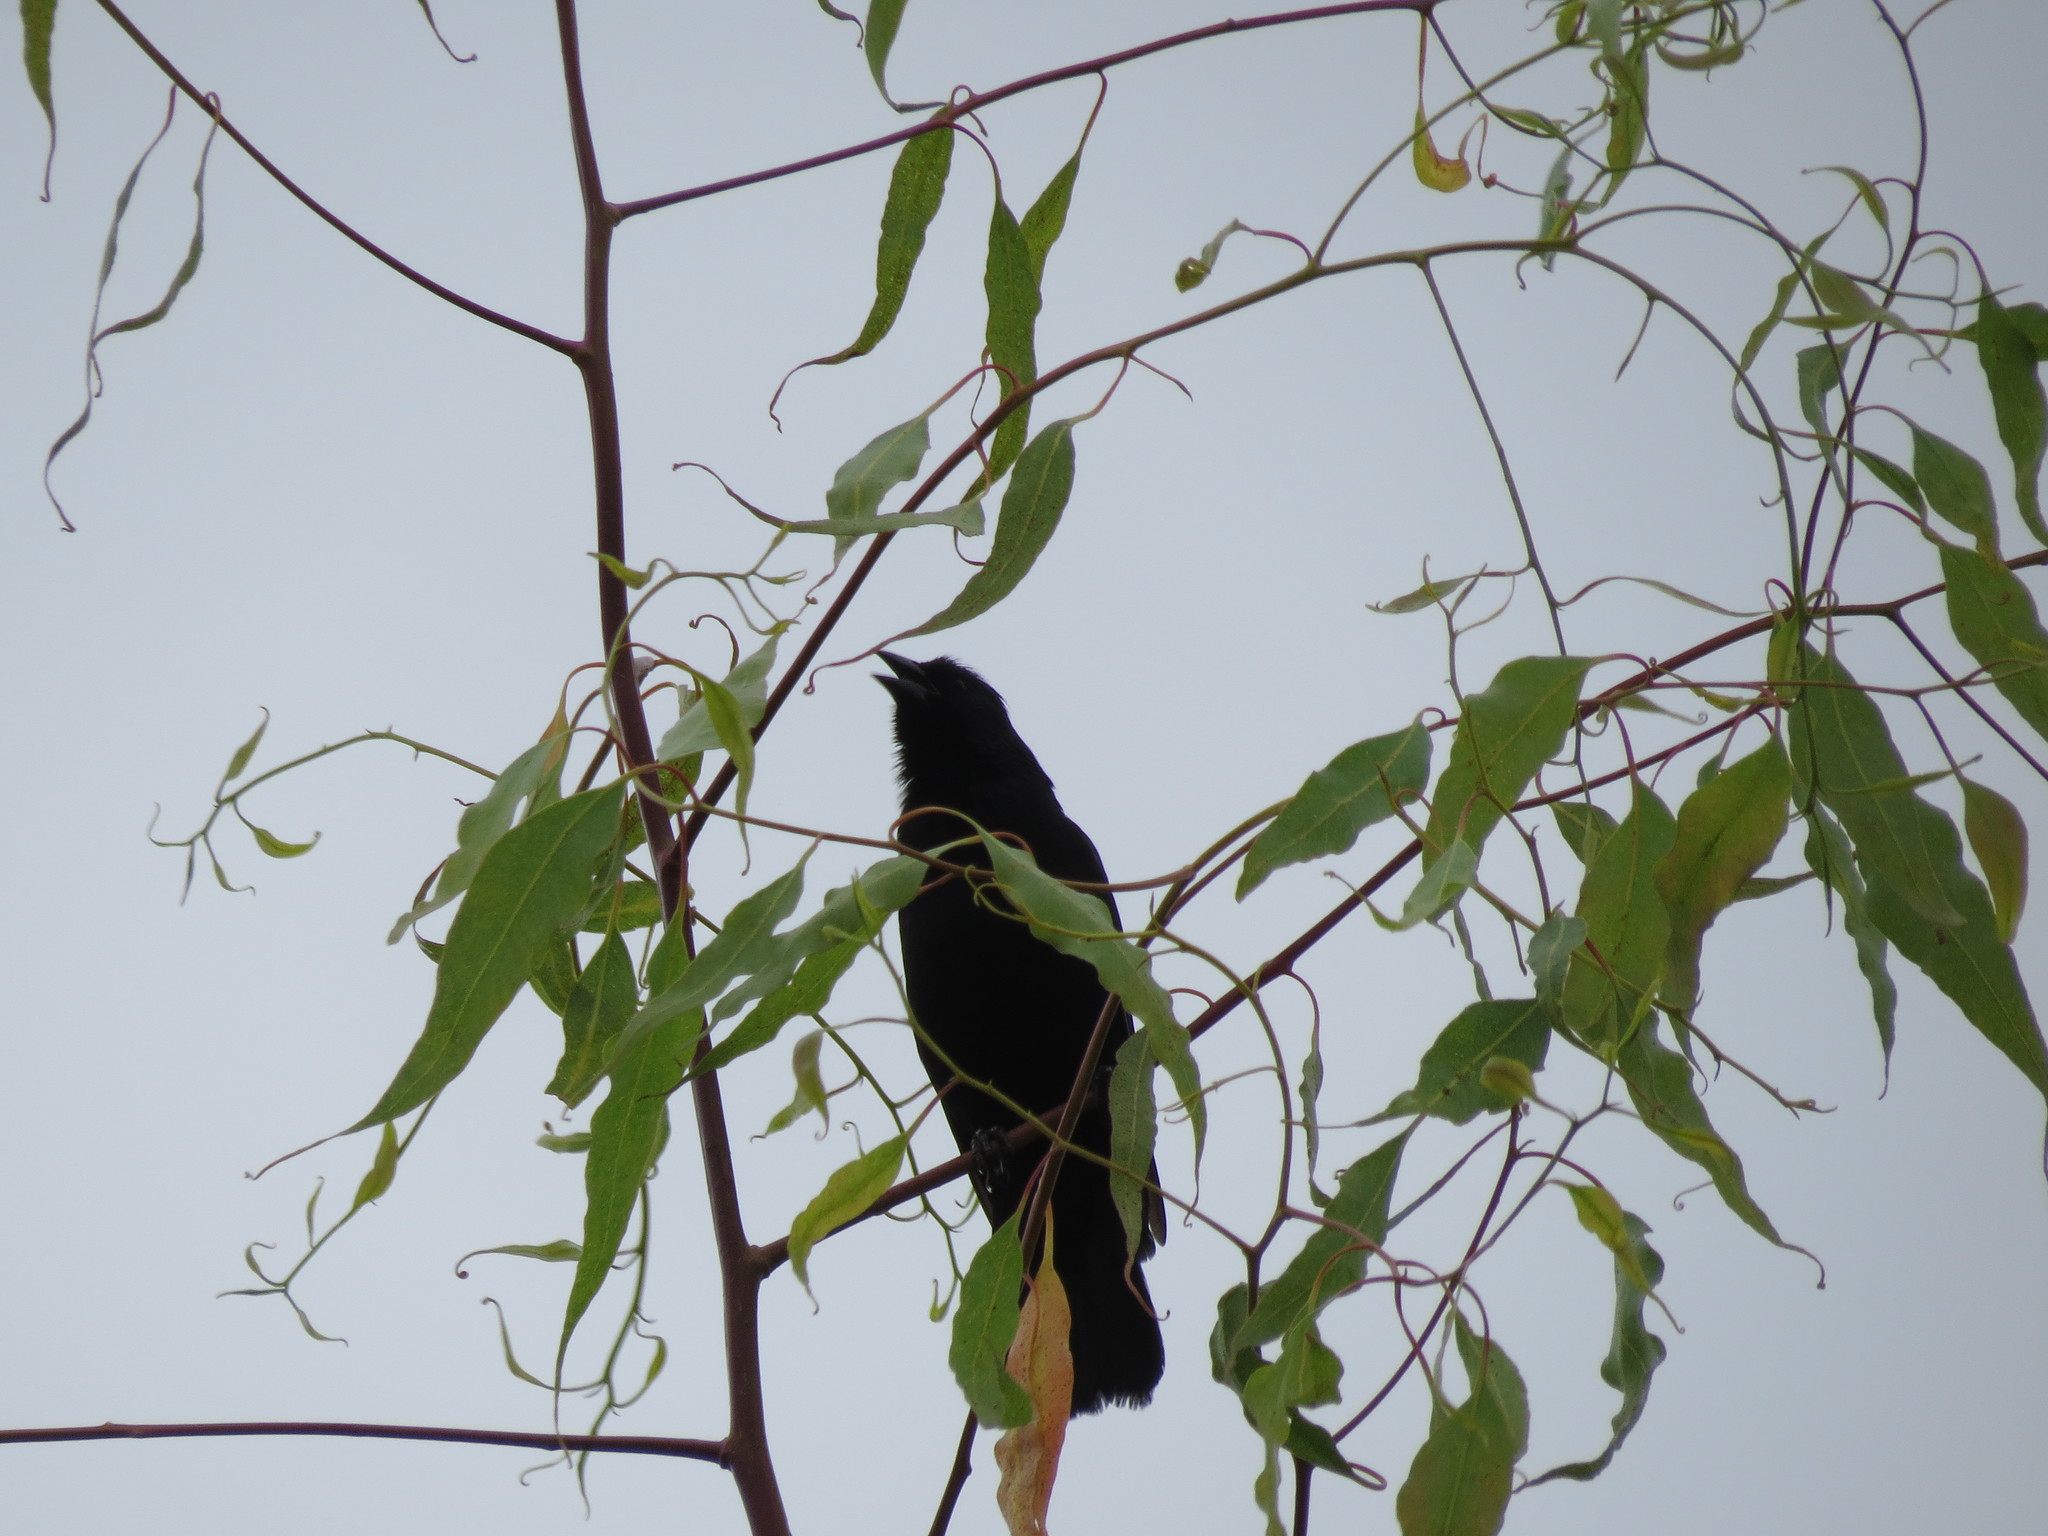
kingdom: Animalia
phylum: Chordata
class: Aves
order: Passeriformes
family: Icteridae
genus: Gnorimopsar
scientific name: Gnorimopsar chopi
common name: Chopi blackbird
